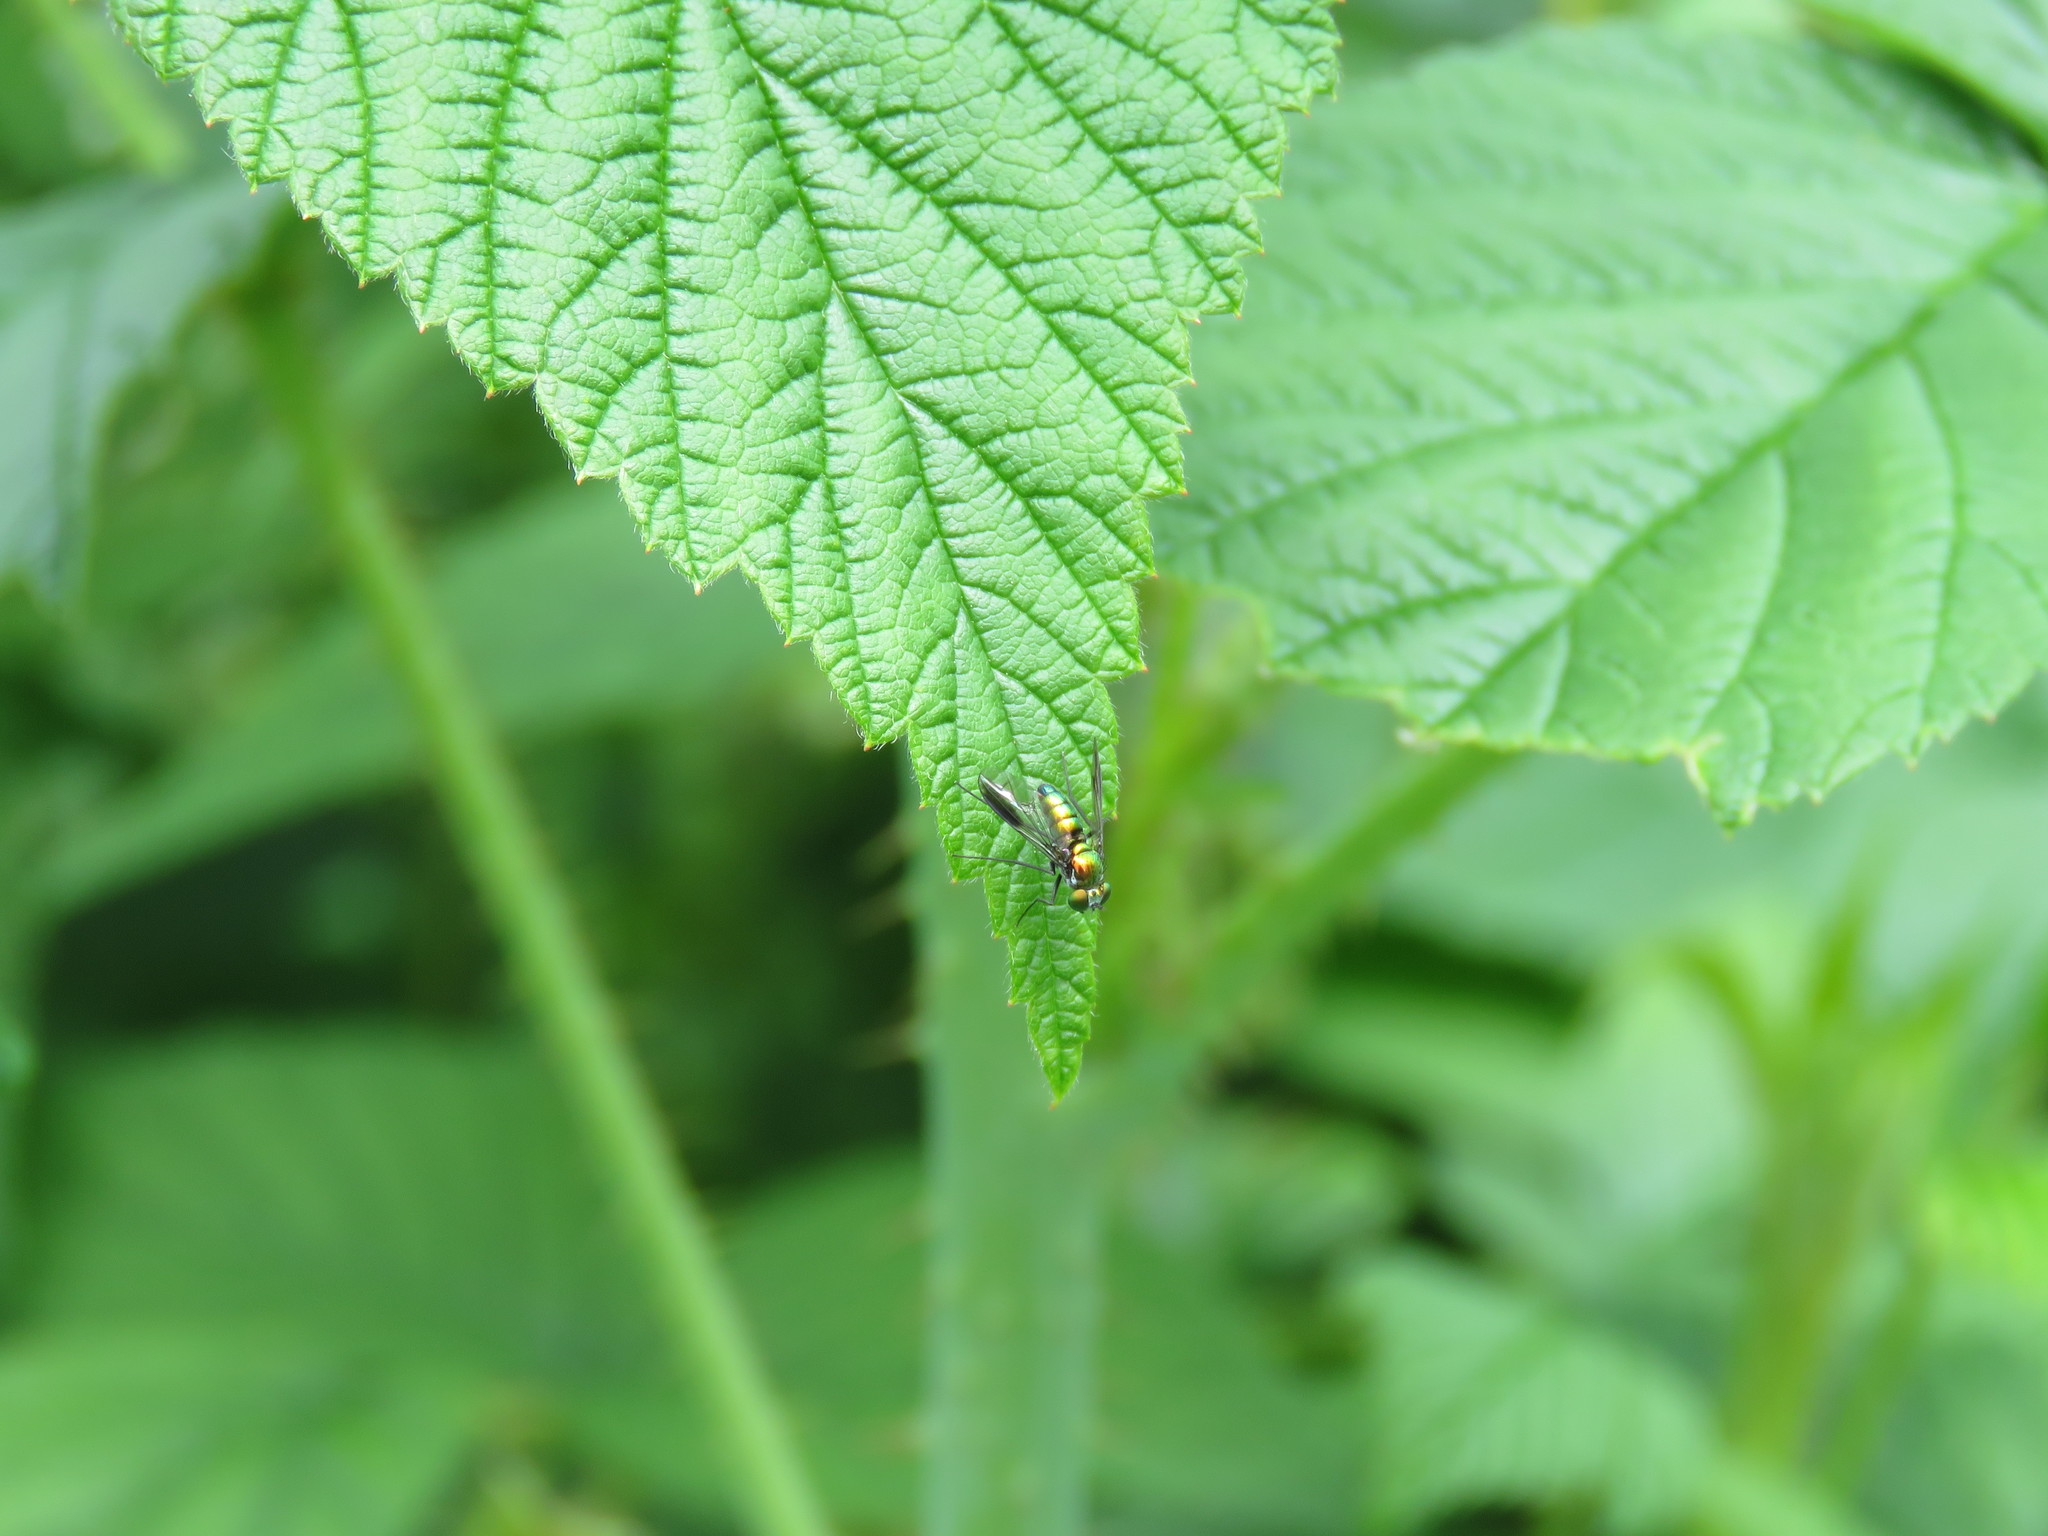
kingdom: Animalia
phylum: Arthropoda
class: Insecta
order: Diptera
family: Dolichopodidae
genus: Condylostylus
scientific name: Condylostylus patibulatus
